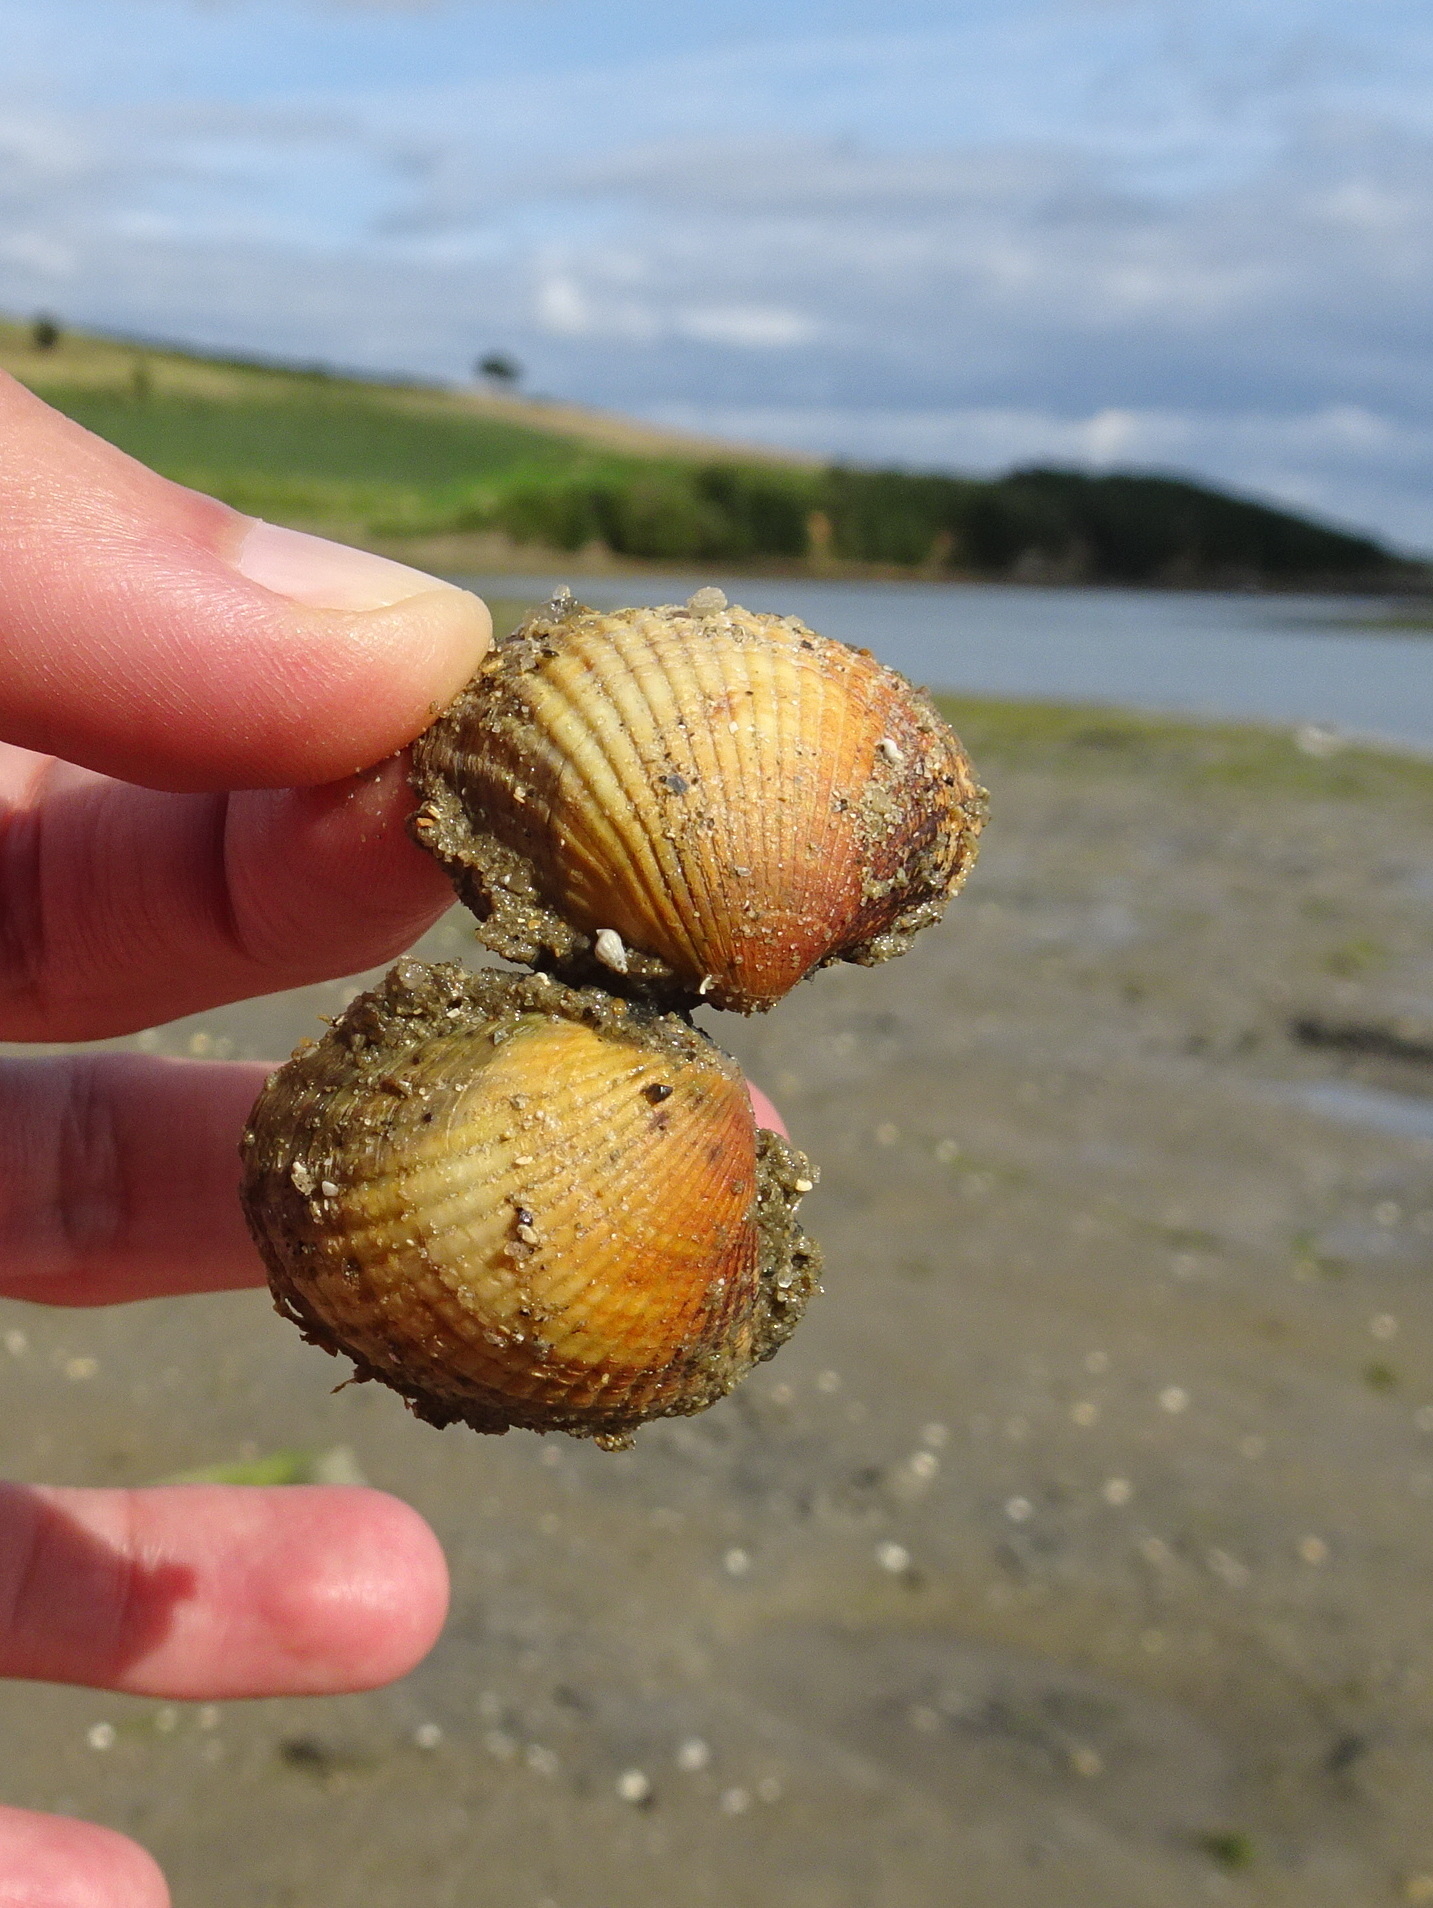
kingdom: Animalia
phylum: Mollusca
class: Bivalvia
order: Cardiida
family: Cardiidae
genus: Cerastoderma
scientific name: Cerastoderma edule
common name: Common cockle
